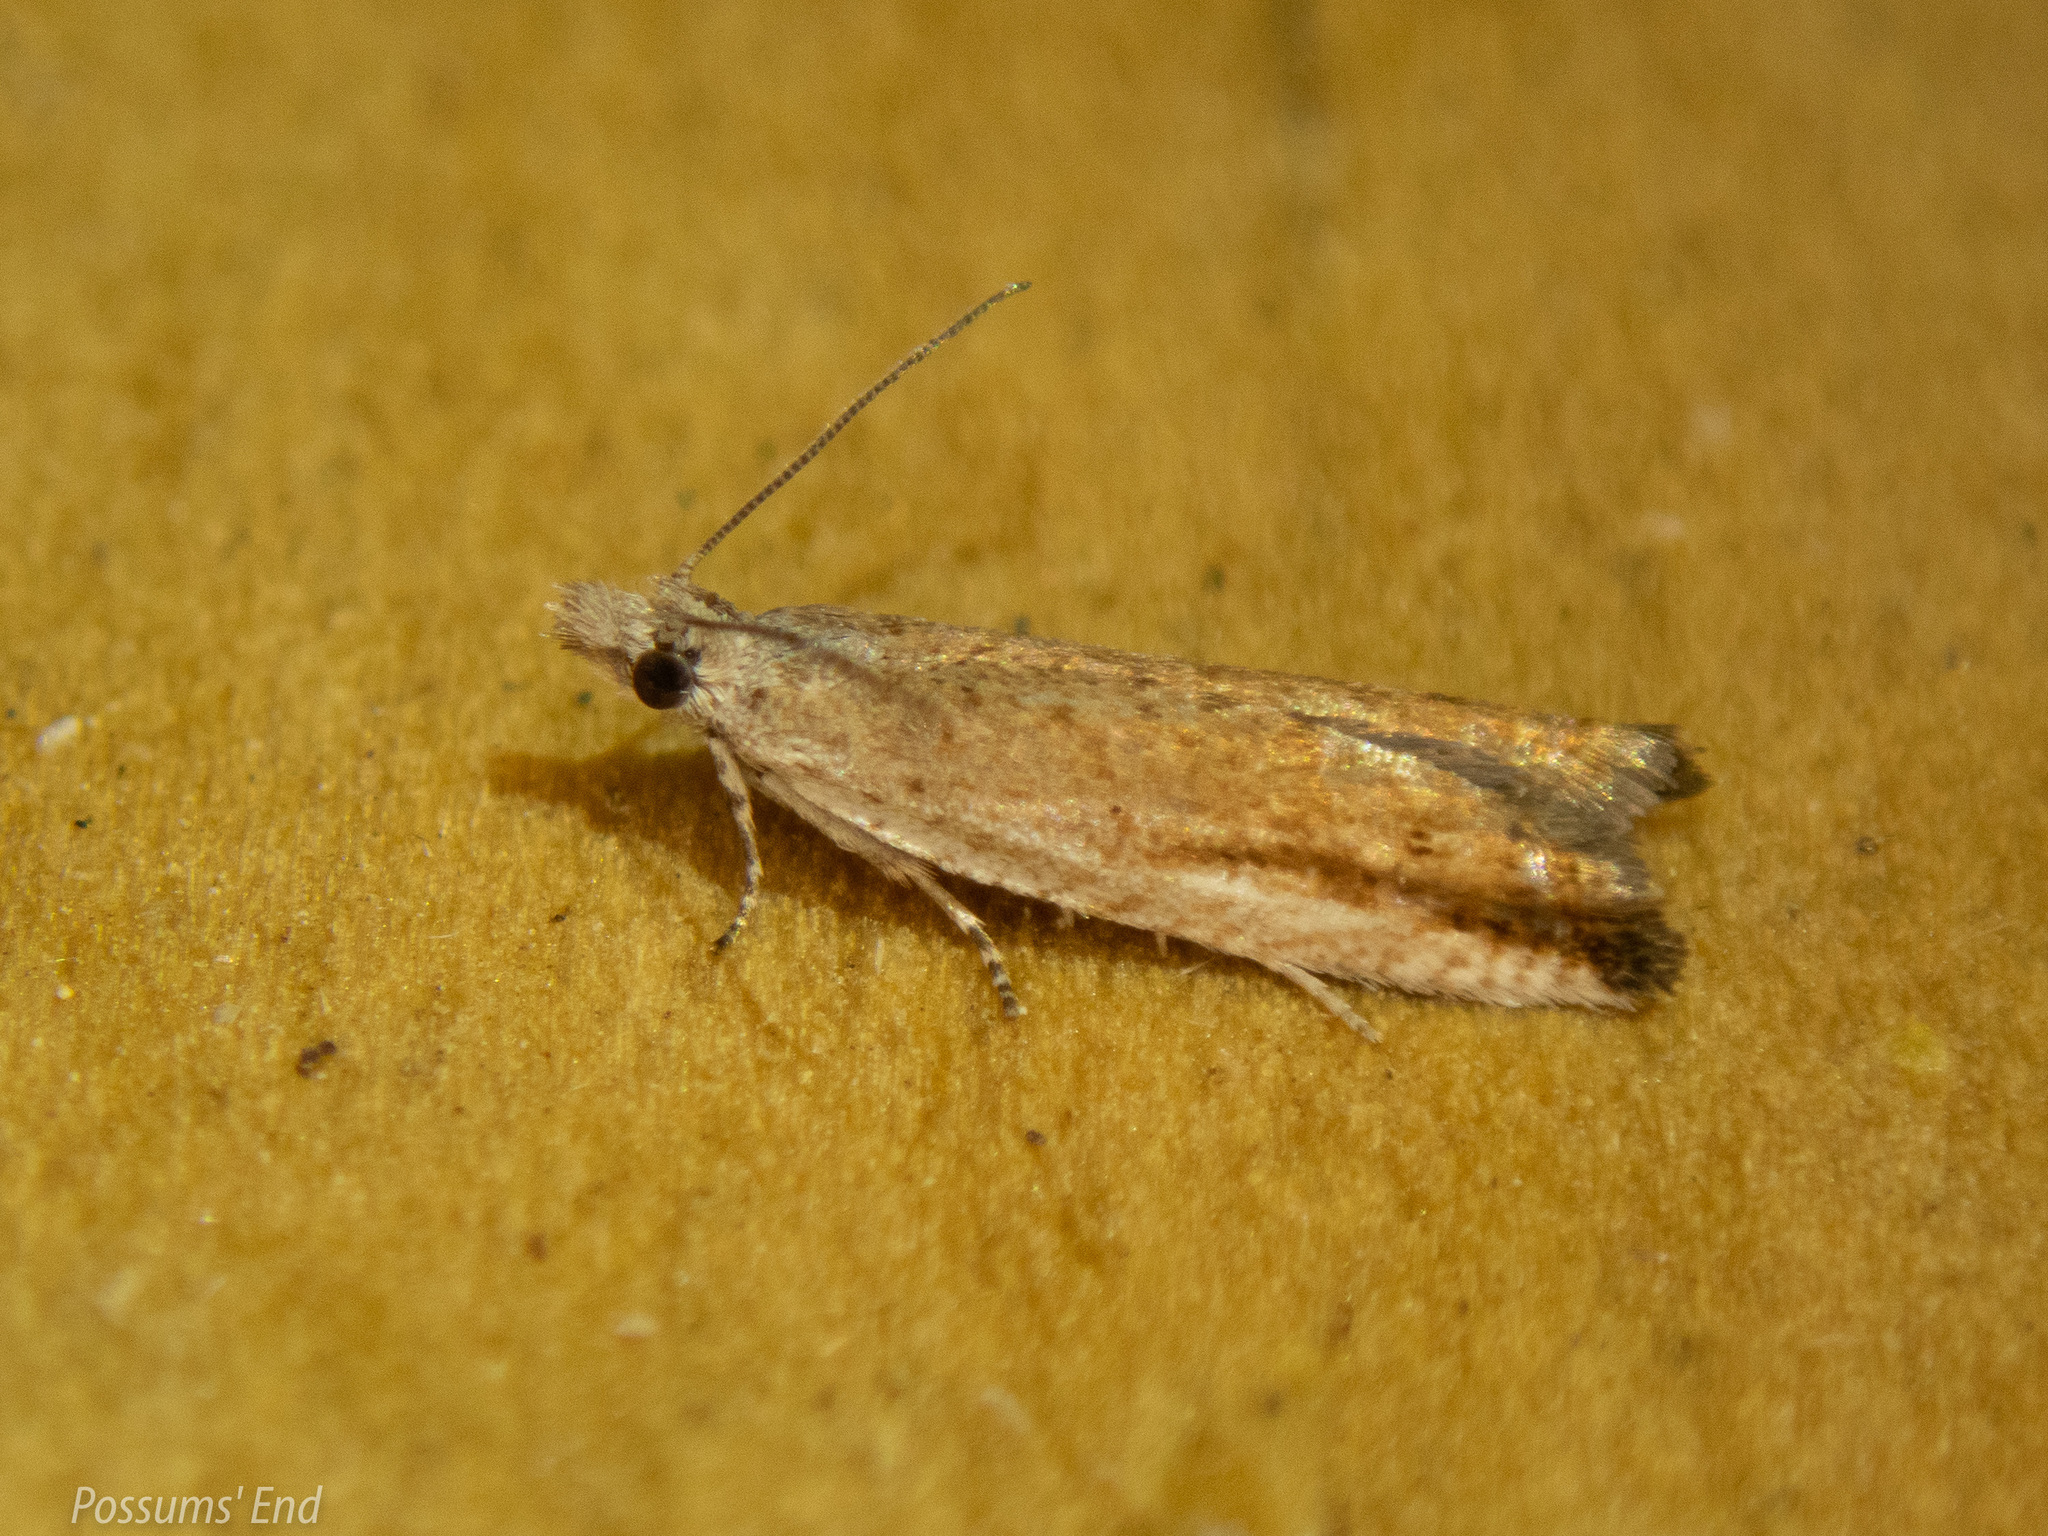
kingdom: Animalia
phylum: Arthropoda
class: Insecta
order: Lepidoptera
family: Tortricidae
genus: Holocola
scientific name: Holocola zopherana
